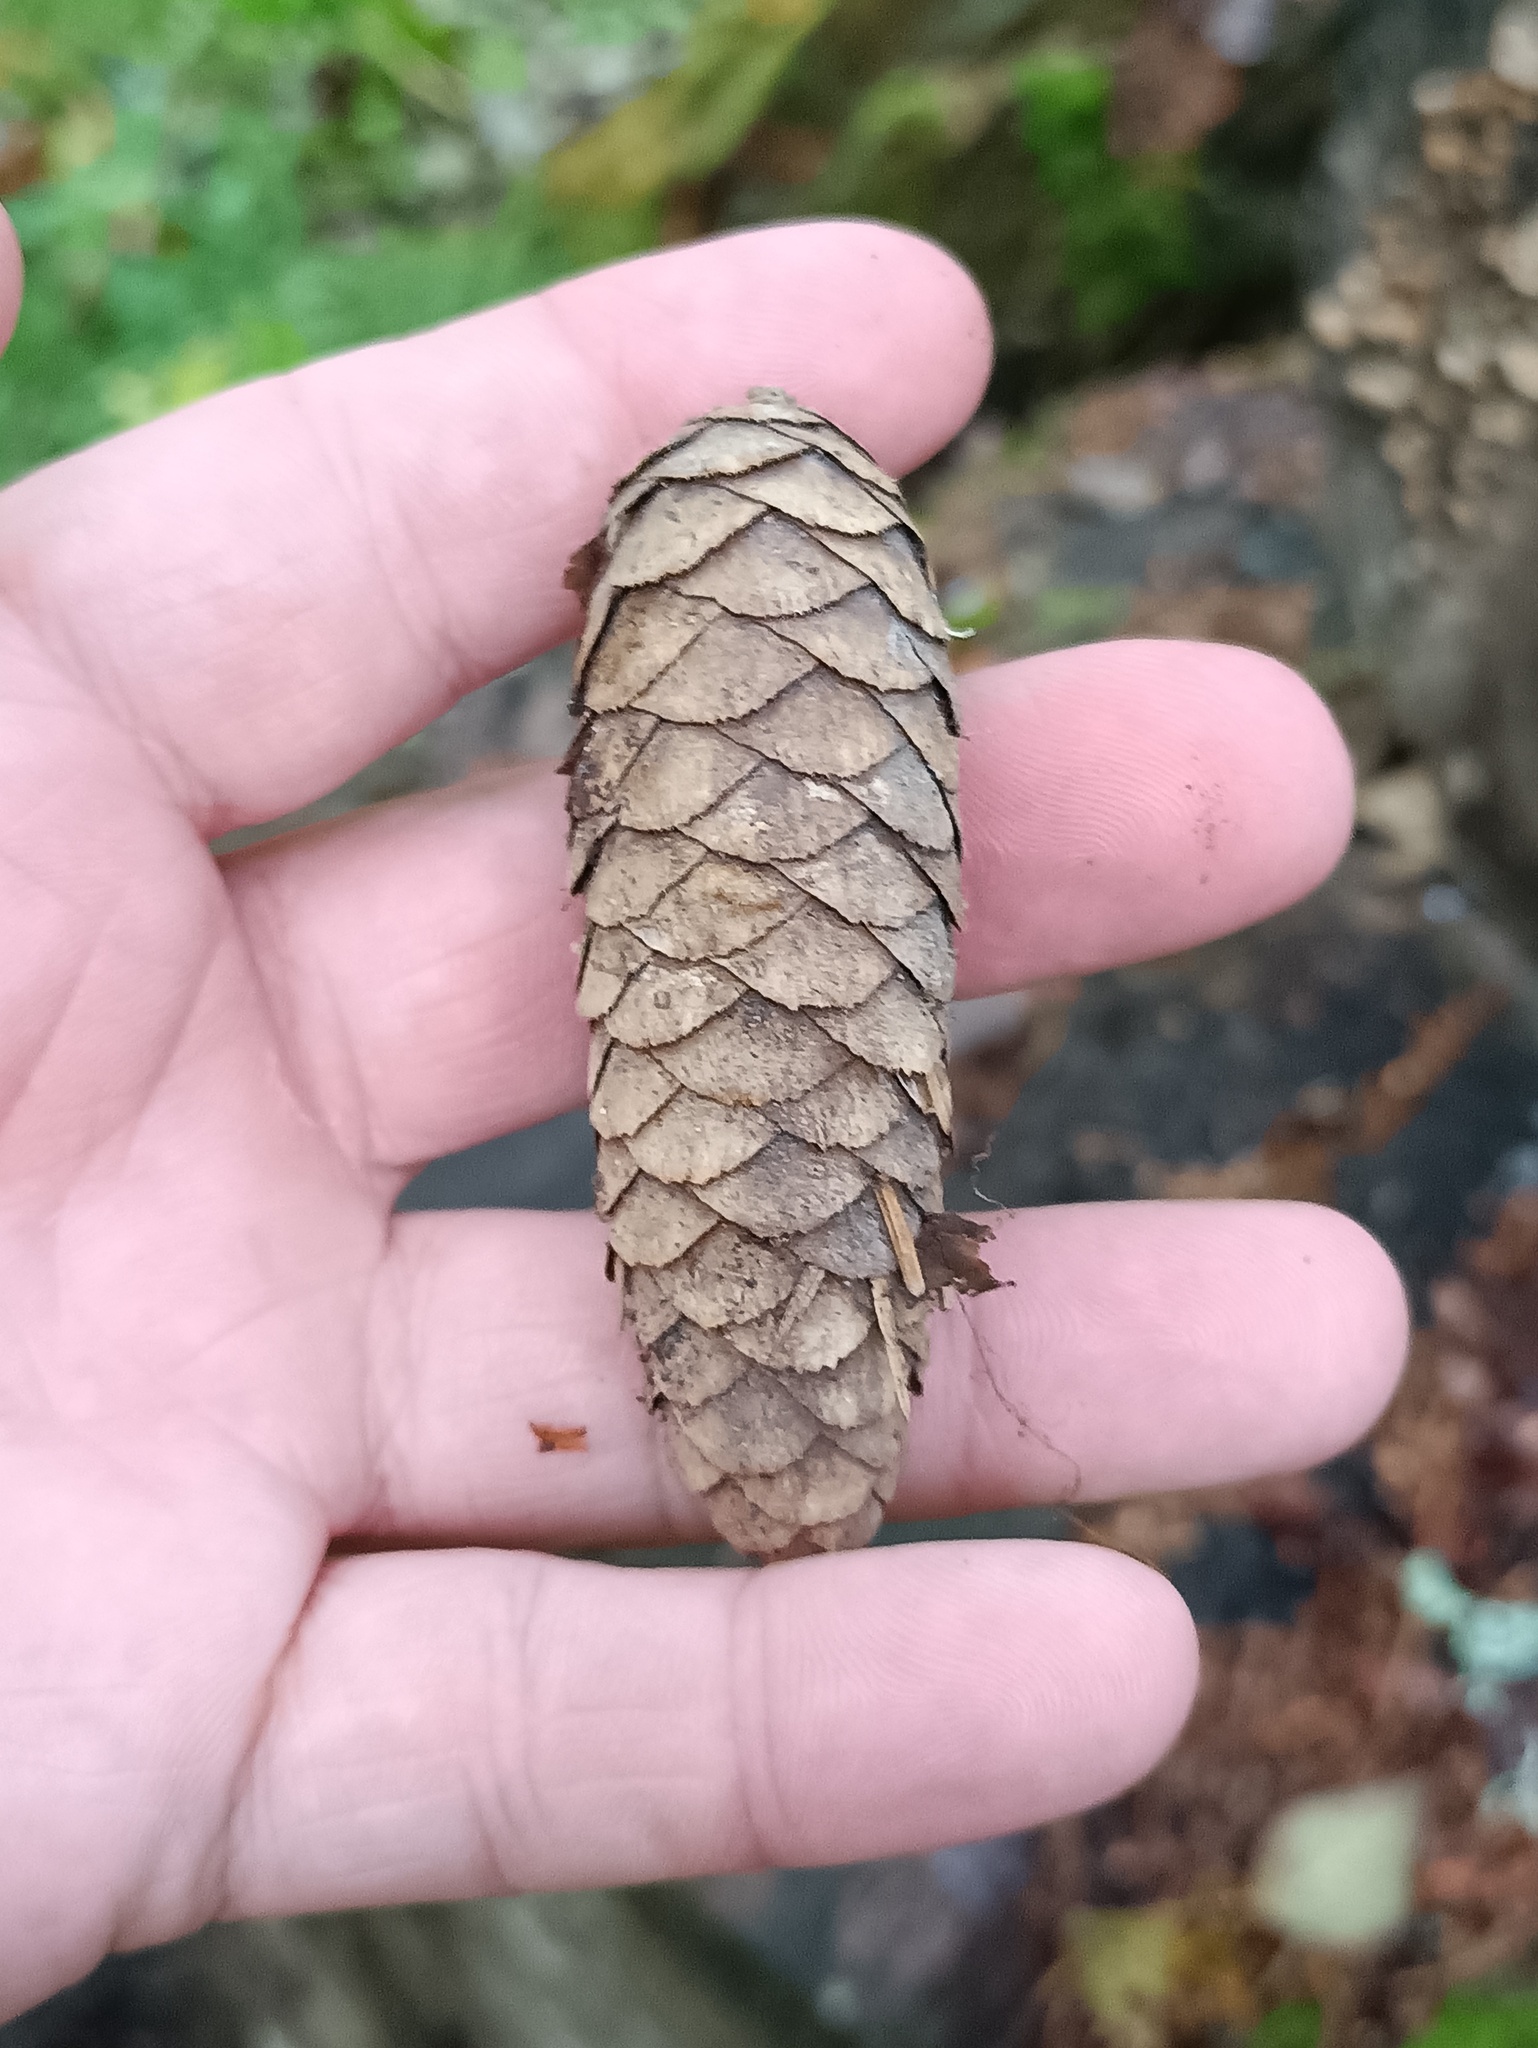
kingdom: Plantae
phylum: Tracheophyta
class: Pinopsida
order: Pinales
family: Pinaceae
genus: Picea
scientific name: Picea abies
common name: Norway spruce
